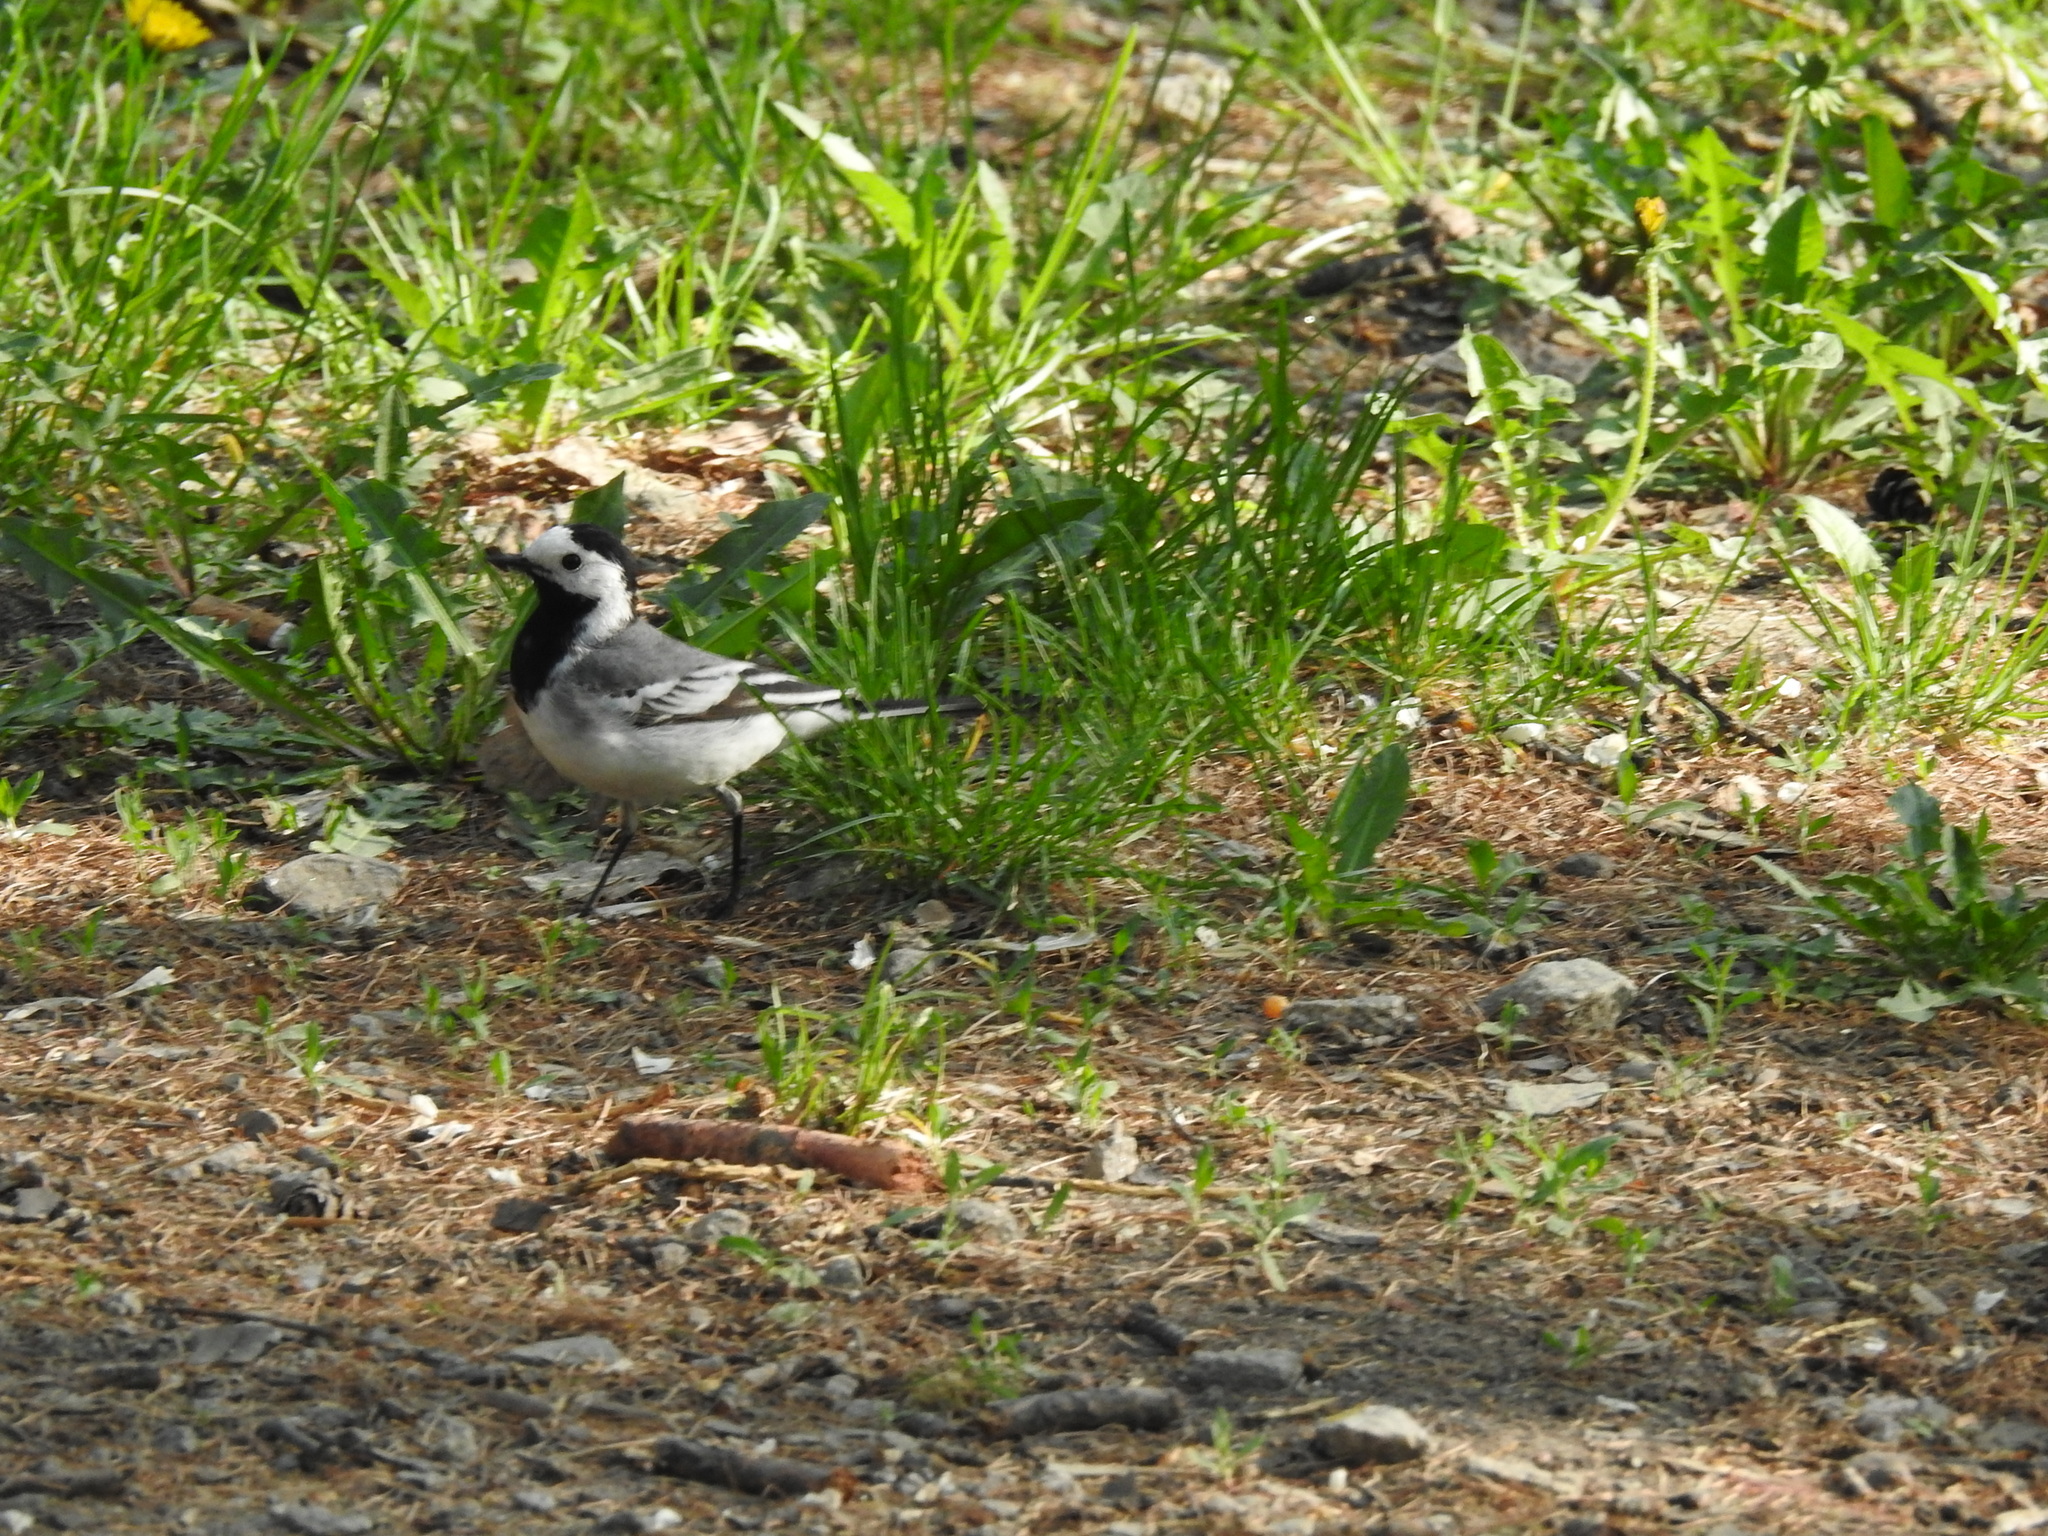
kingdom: Animalia
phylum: Chordata
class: Aves
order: Passeriformes
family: Motacillidae
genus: Motacilla
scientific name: Motacilla alba
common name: White wagtail
